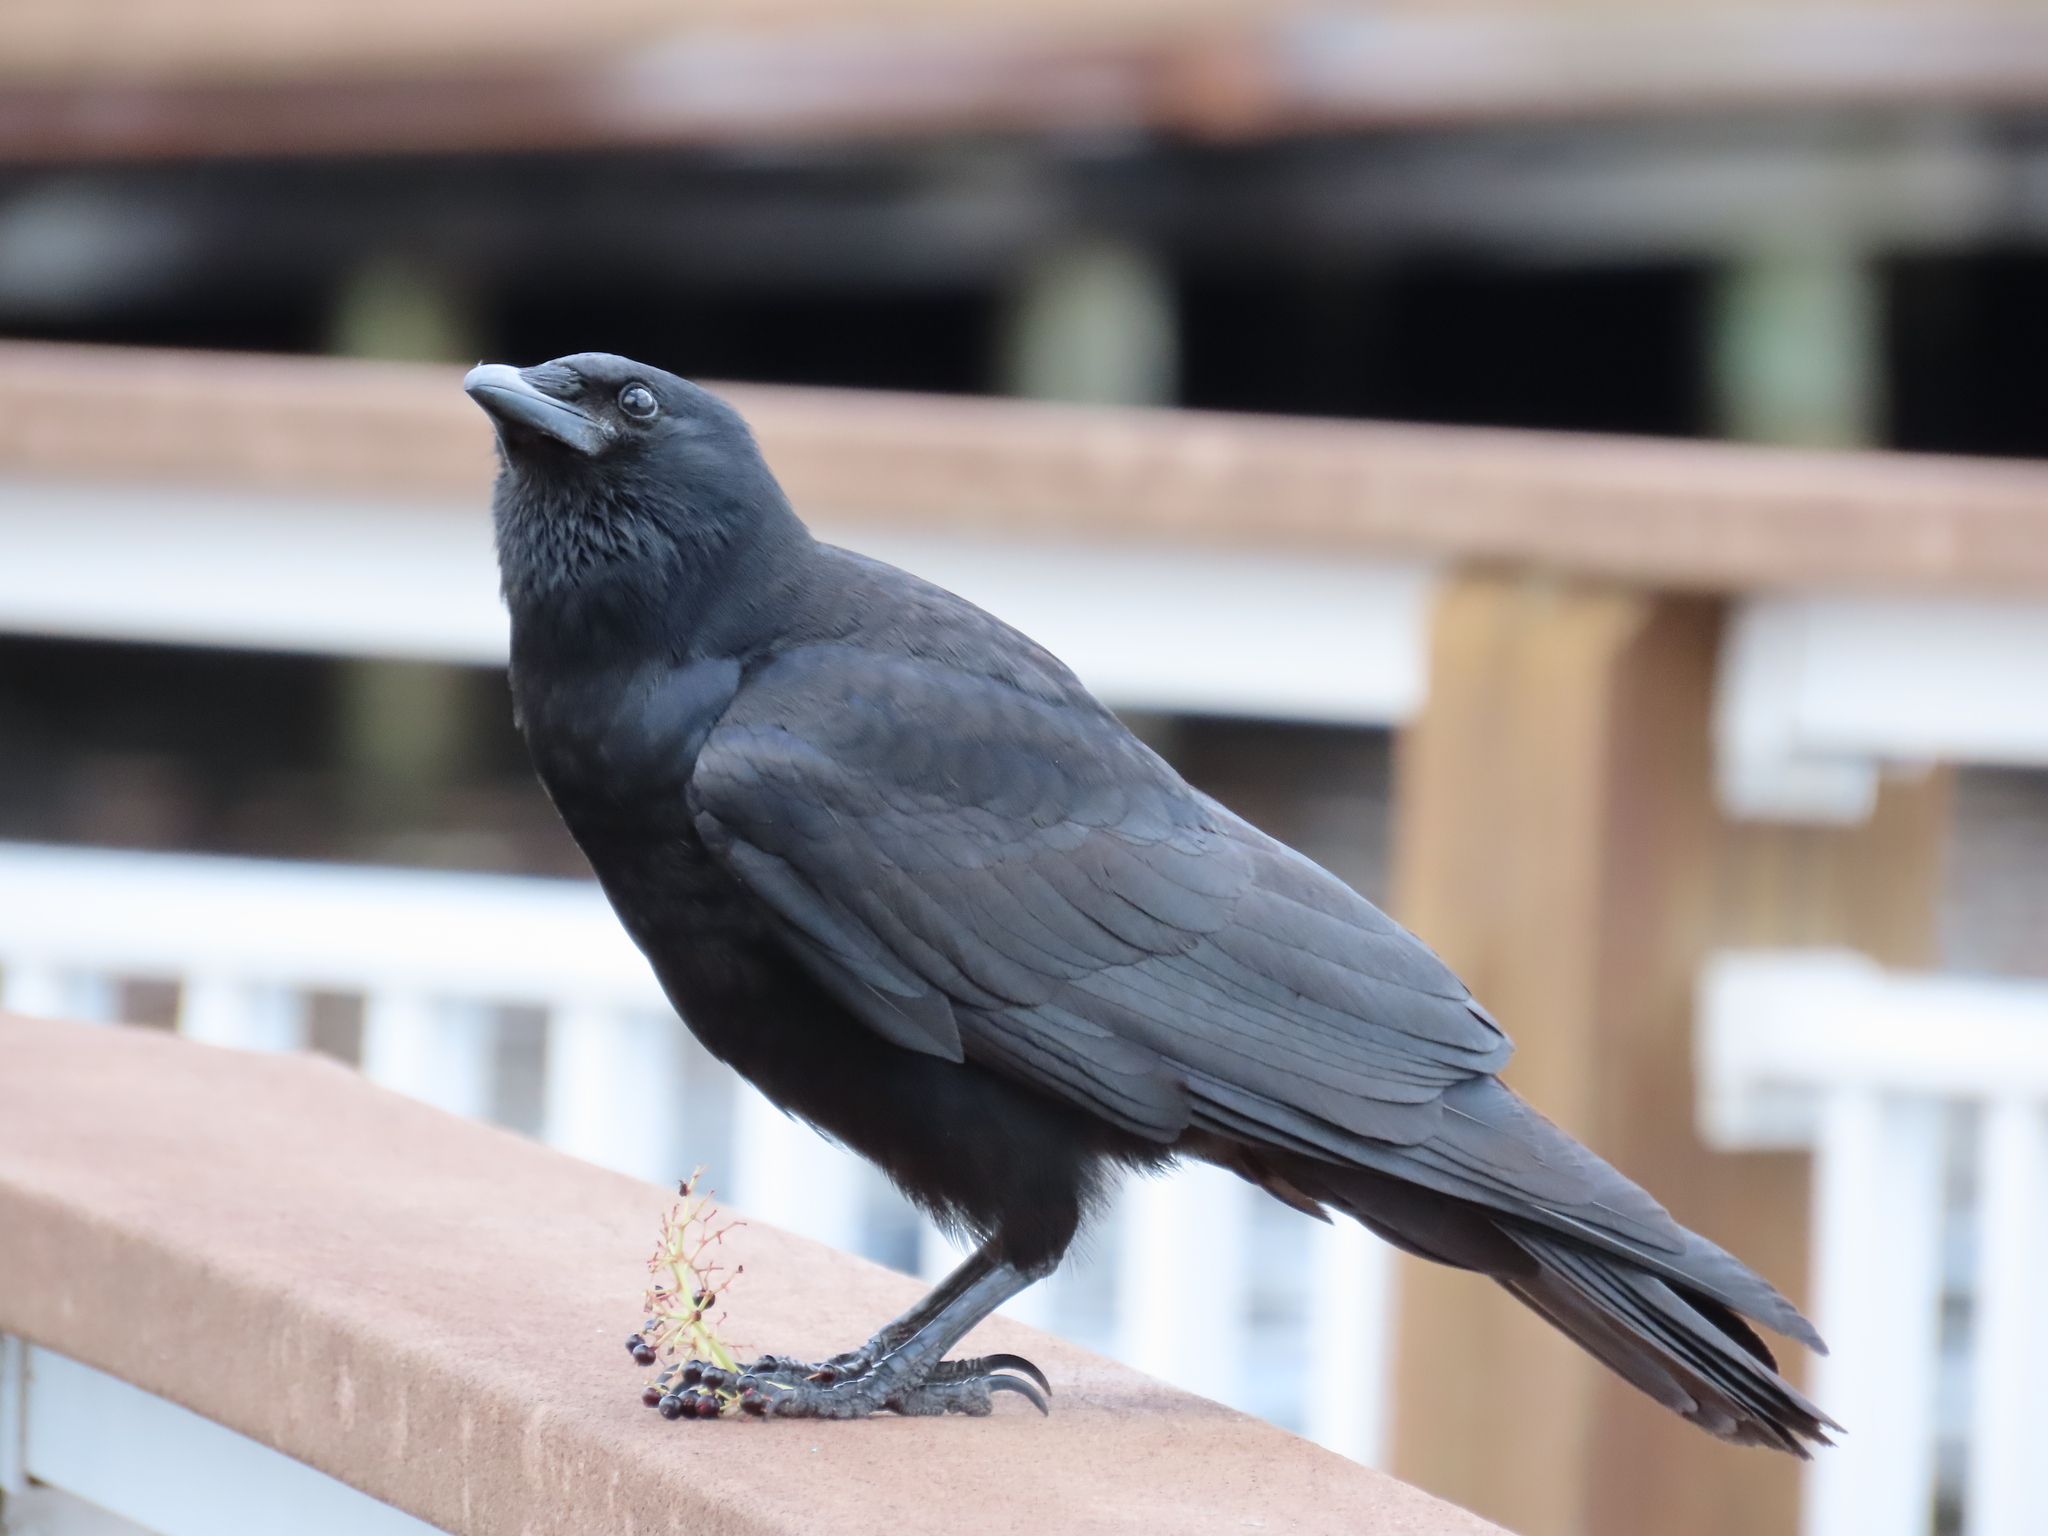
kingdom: Animalia
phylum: Chordata
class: Aves
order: Passeriformes
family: Corvidae
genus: Corvus
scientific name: Corvus ossifragus
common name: Fish crow
